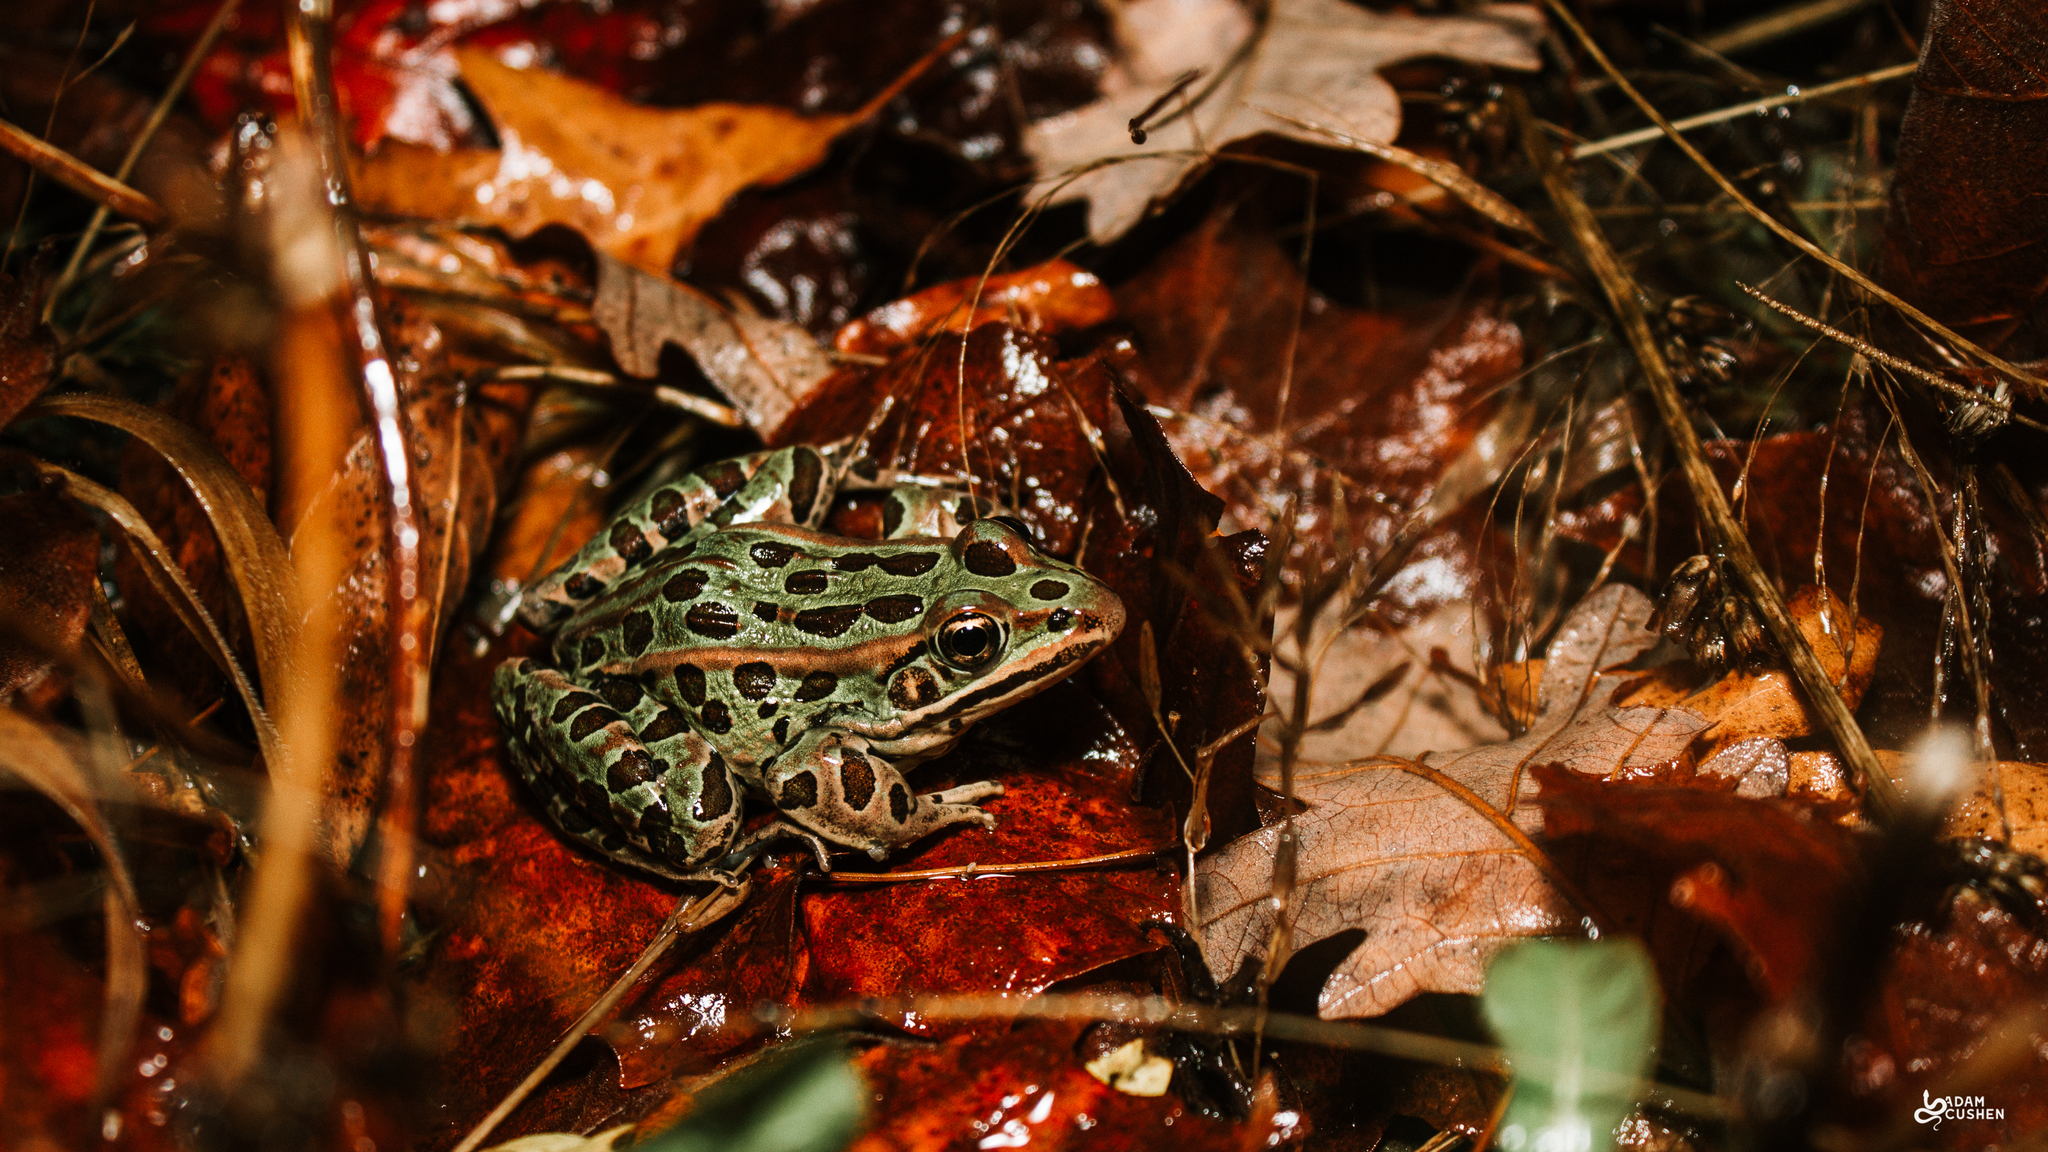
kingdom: Animalia
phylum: Chordata
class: Amphibia
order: Anura
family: Ranidae
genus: Lithobates
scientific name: Lithobates pipiens
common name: Northern leopard frog
